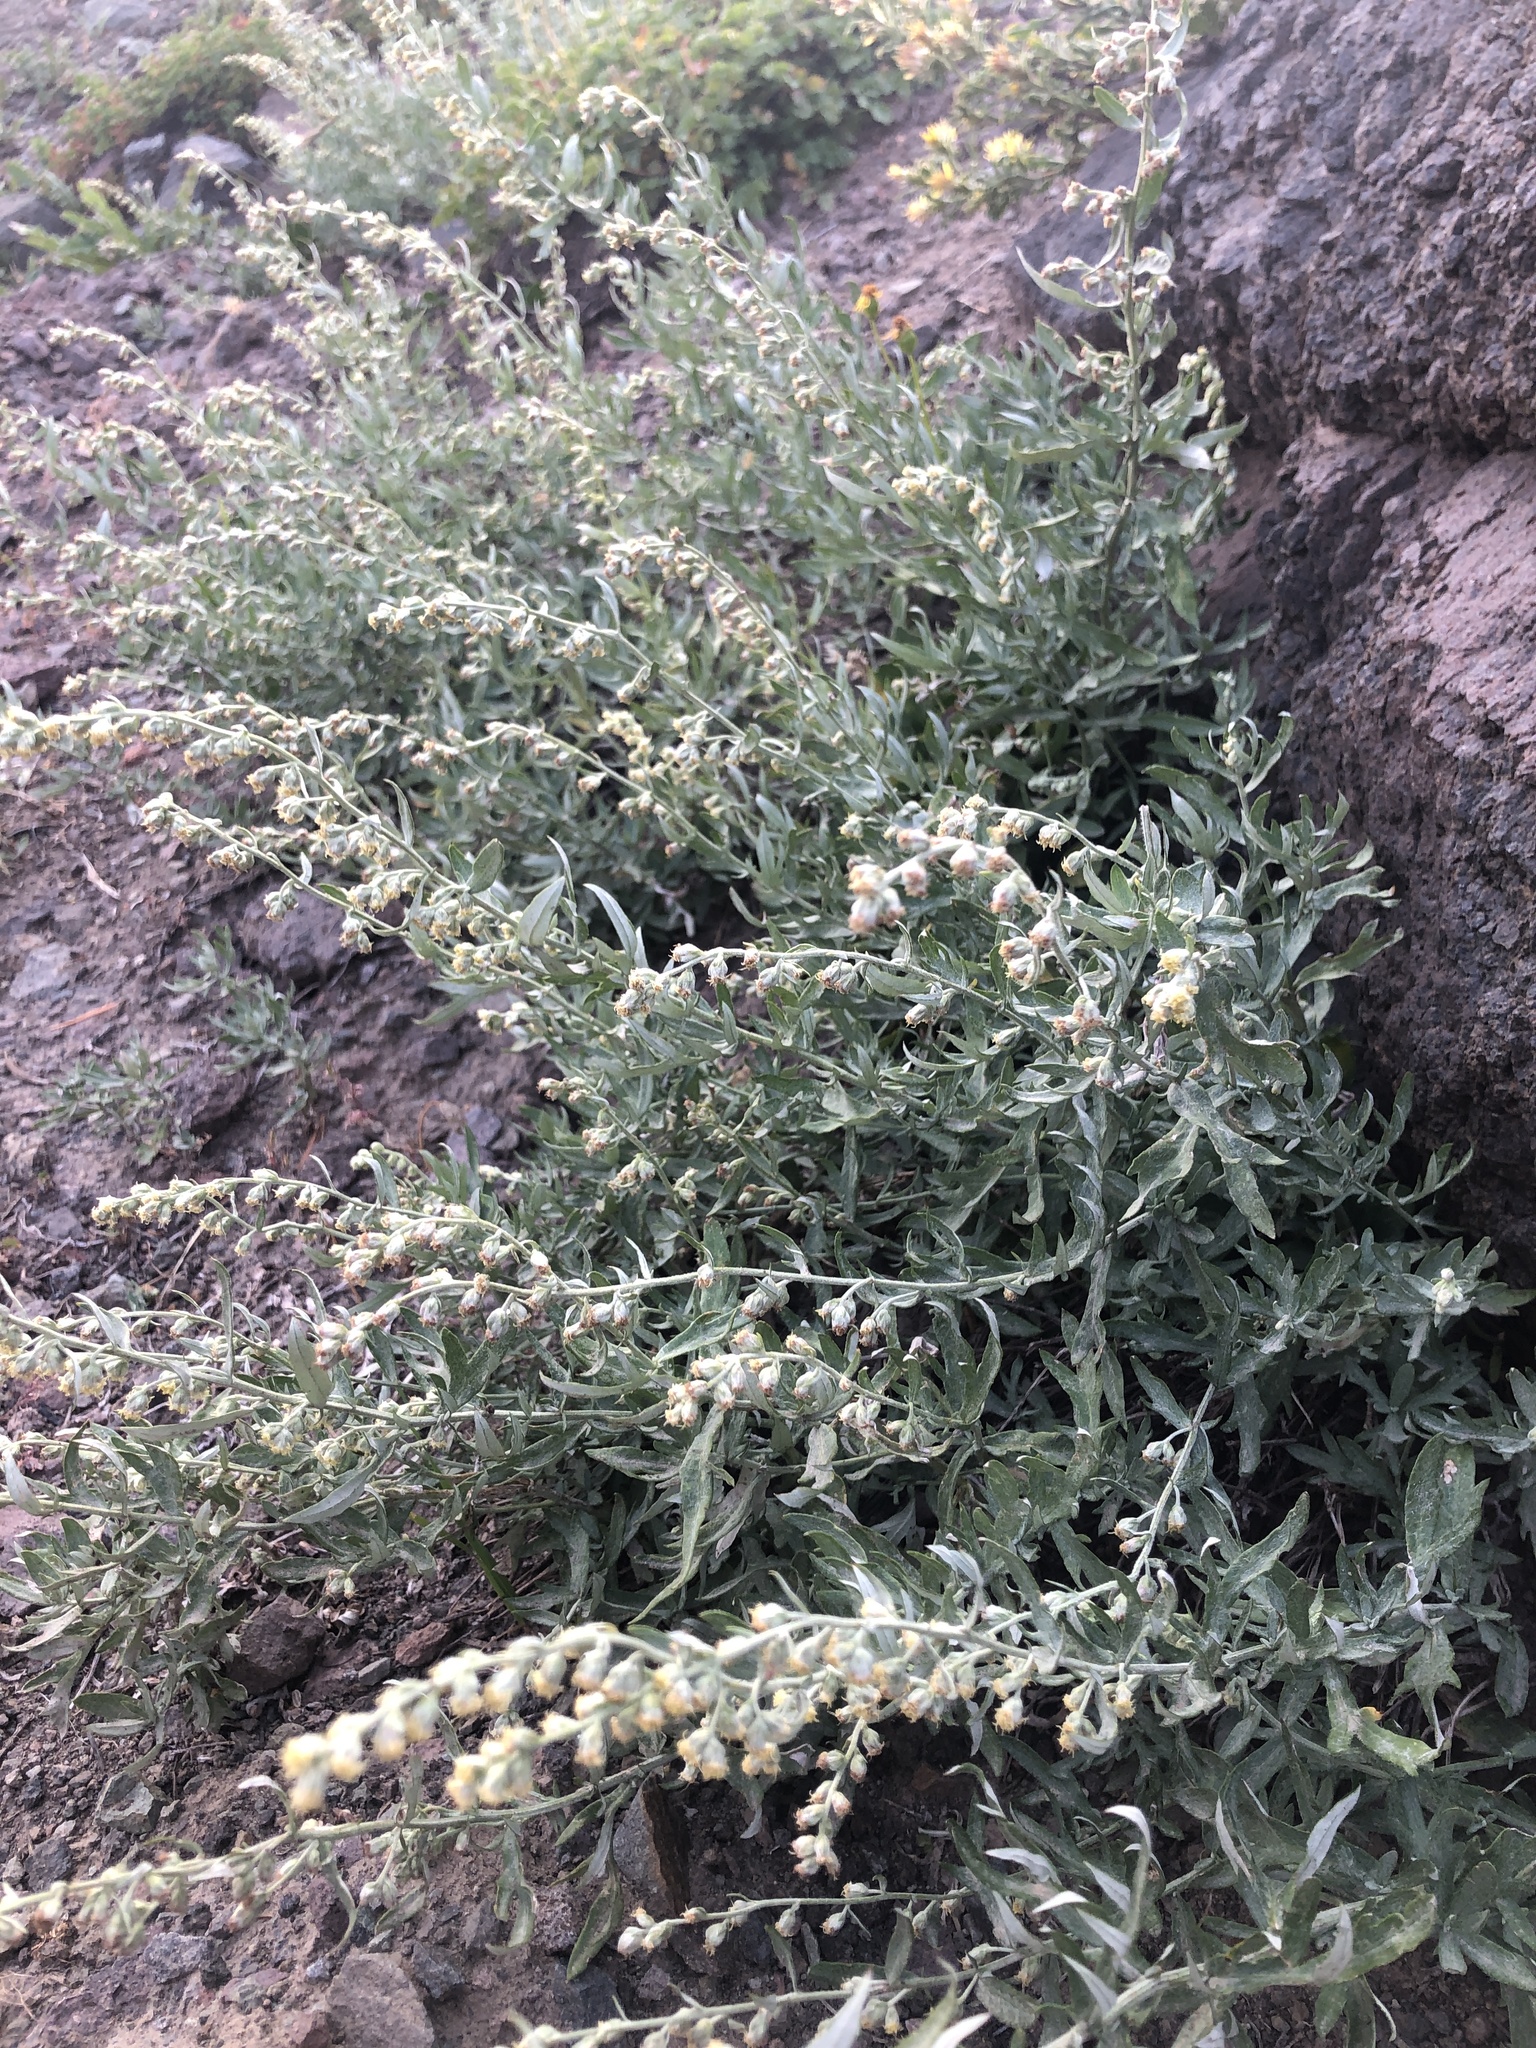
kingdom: Plantae
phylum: Tracheophyta
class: Magnoliopsida
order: Asterales
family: Asteraceae
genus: Artemisia
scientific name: Artemisia ludoviciana
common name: Western mugwort
